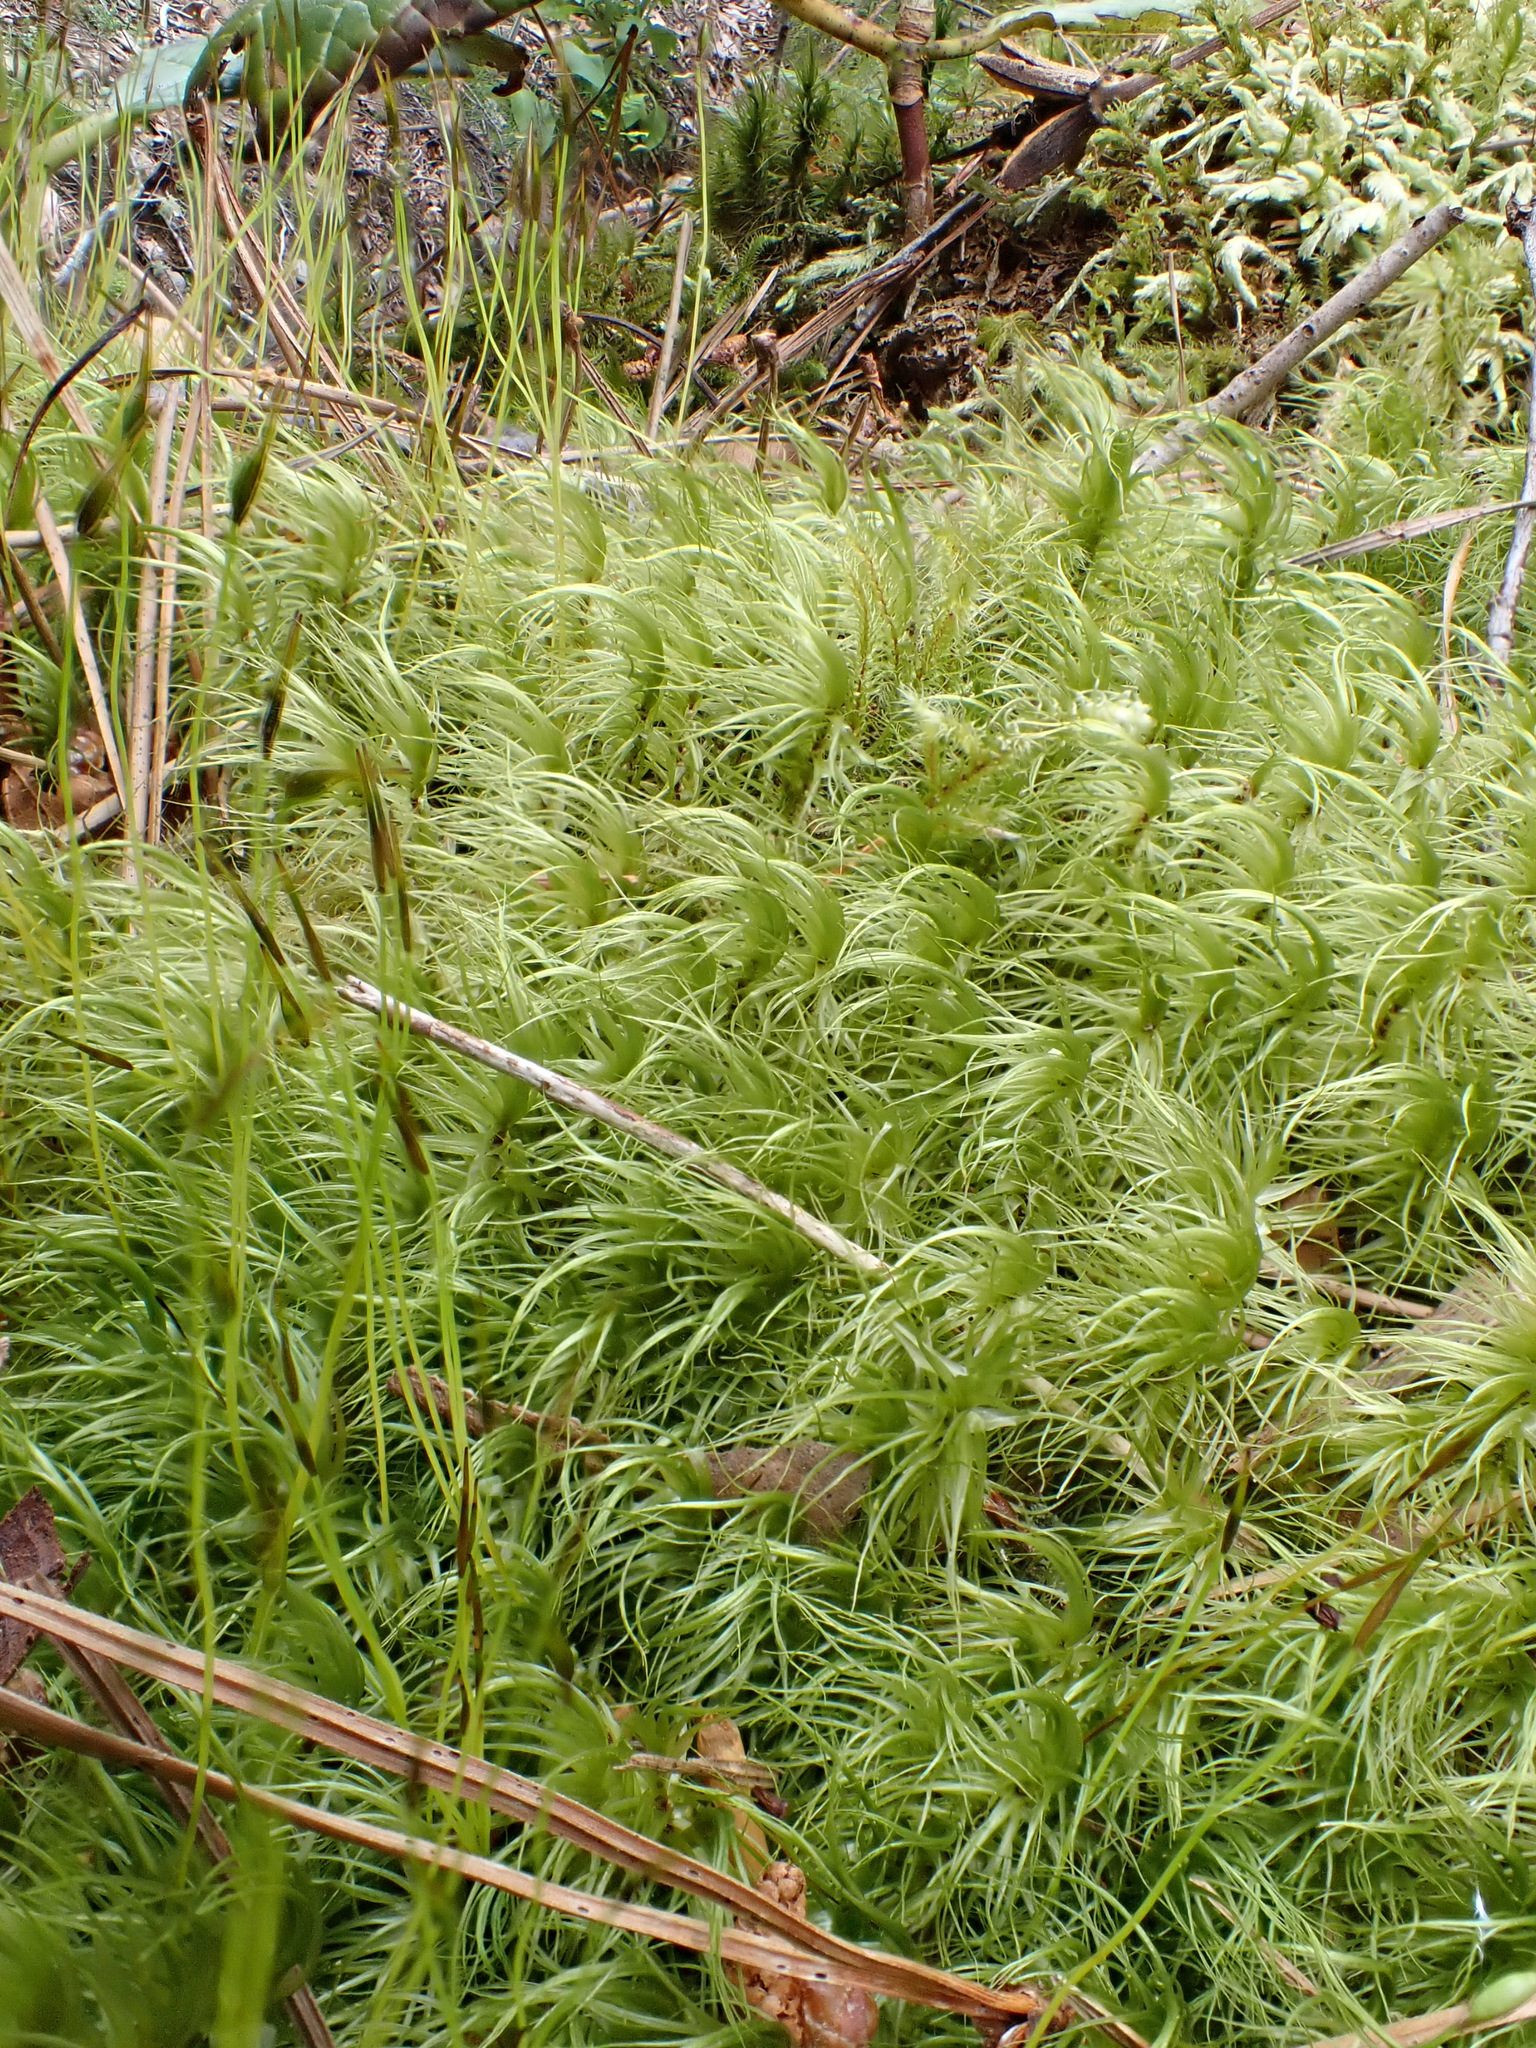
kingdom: Plantae
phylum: Bryophyta
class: Bryopsida
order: Dicranales
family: Dicranaceae
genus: Dicranum
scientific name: Dicranum majus
